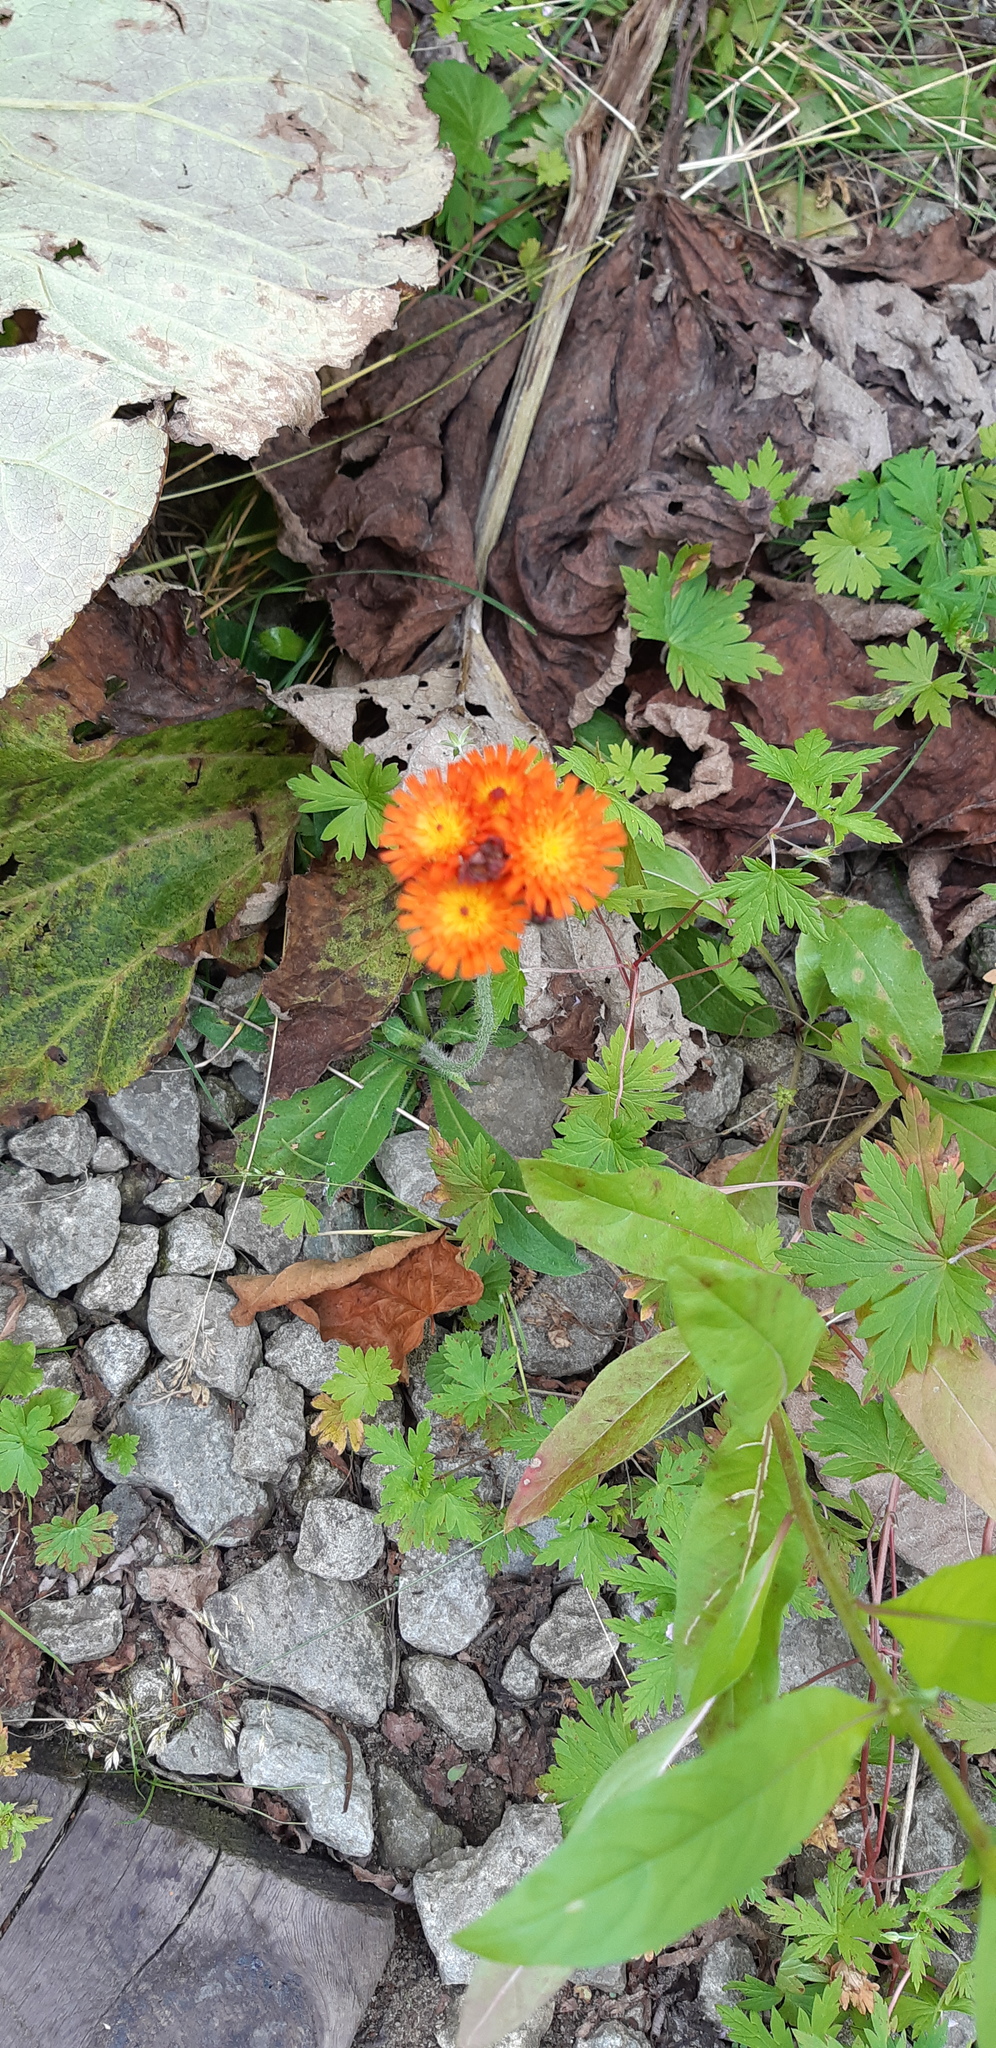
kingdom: Plantae
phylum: Tracheophyta
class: Magnoliopsida
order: Asterales
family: Asteraceae
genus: Pilosella
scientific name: Pilosella aurantiaca
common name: Fox-and-cubs
